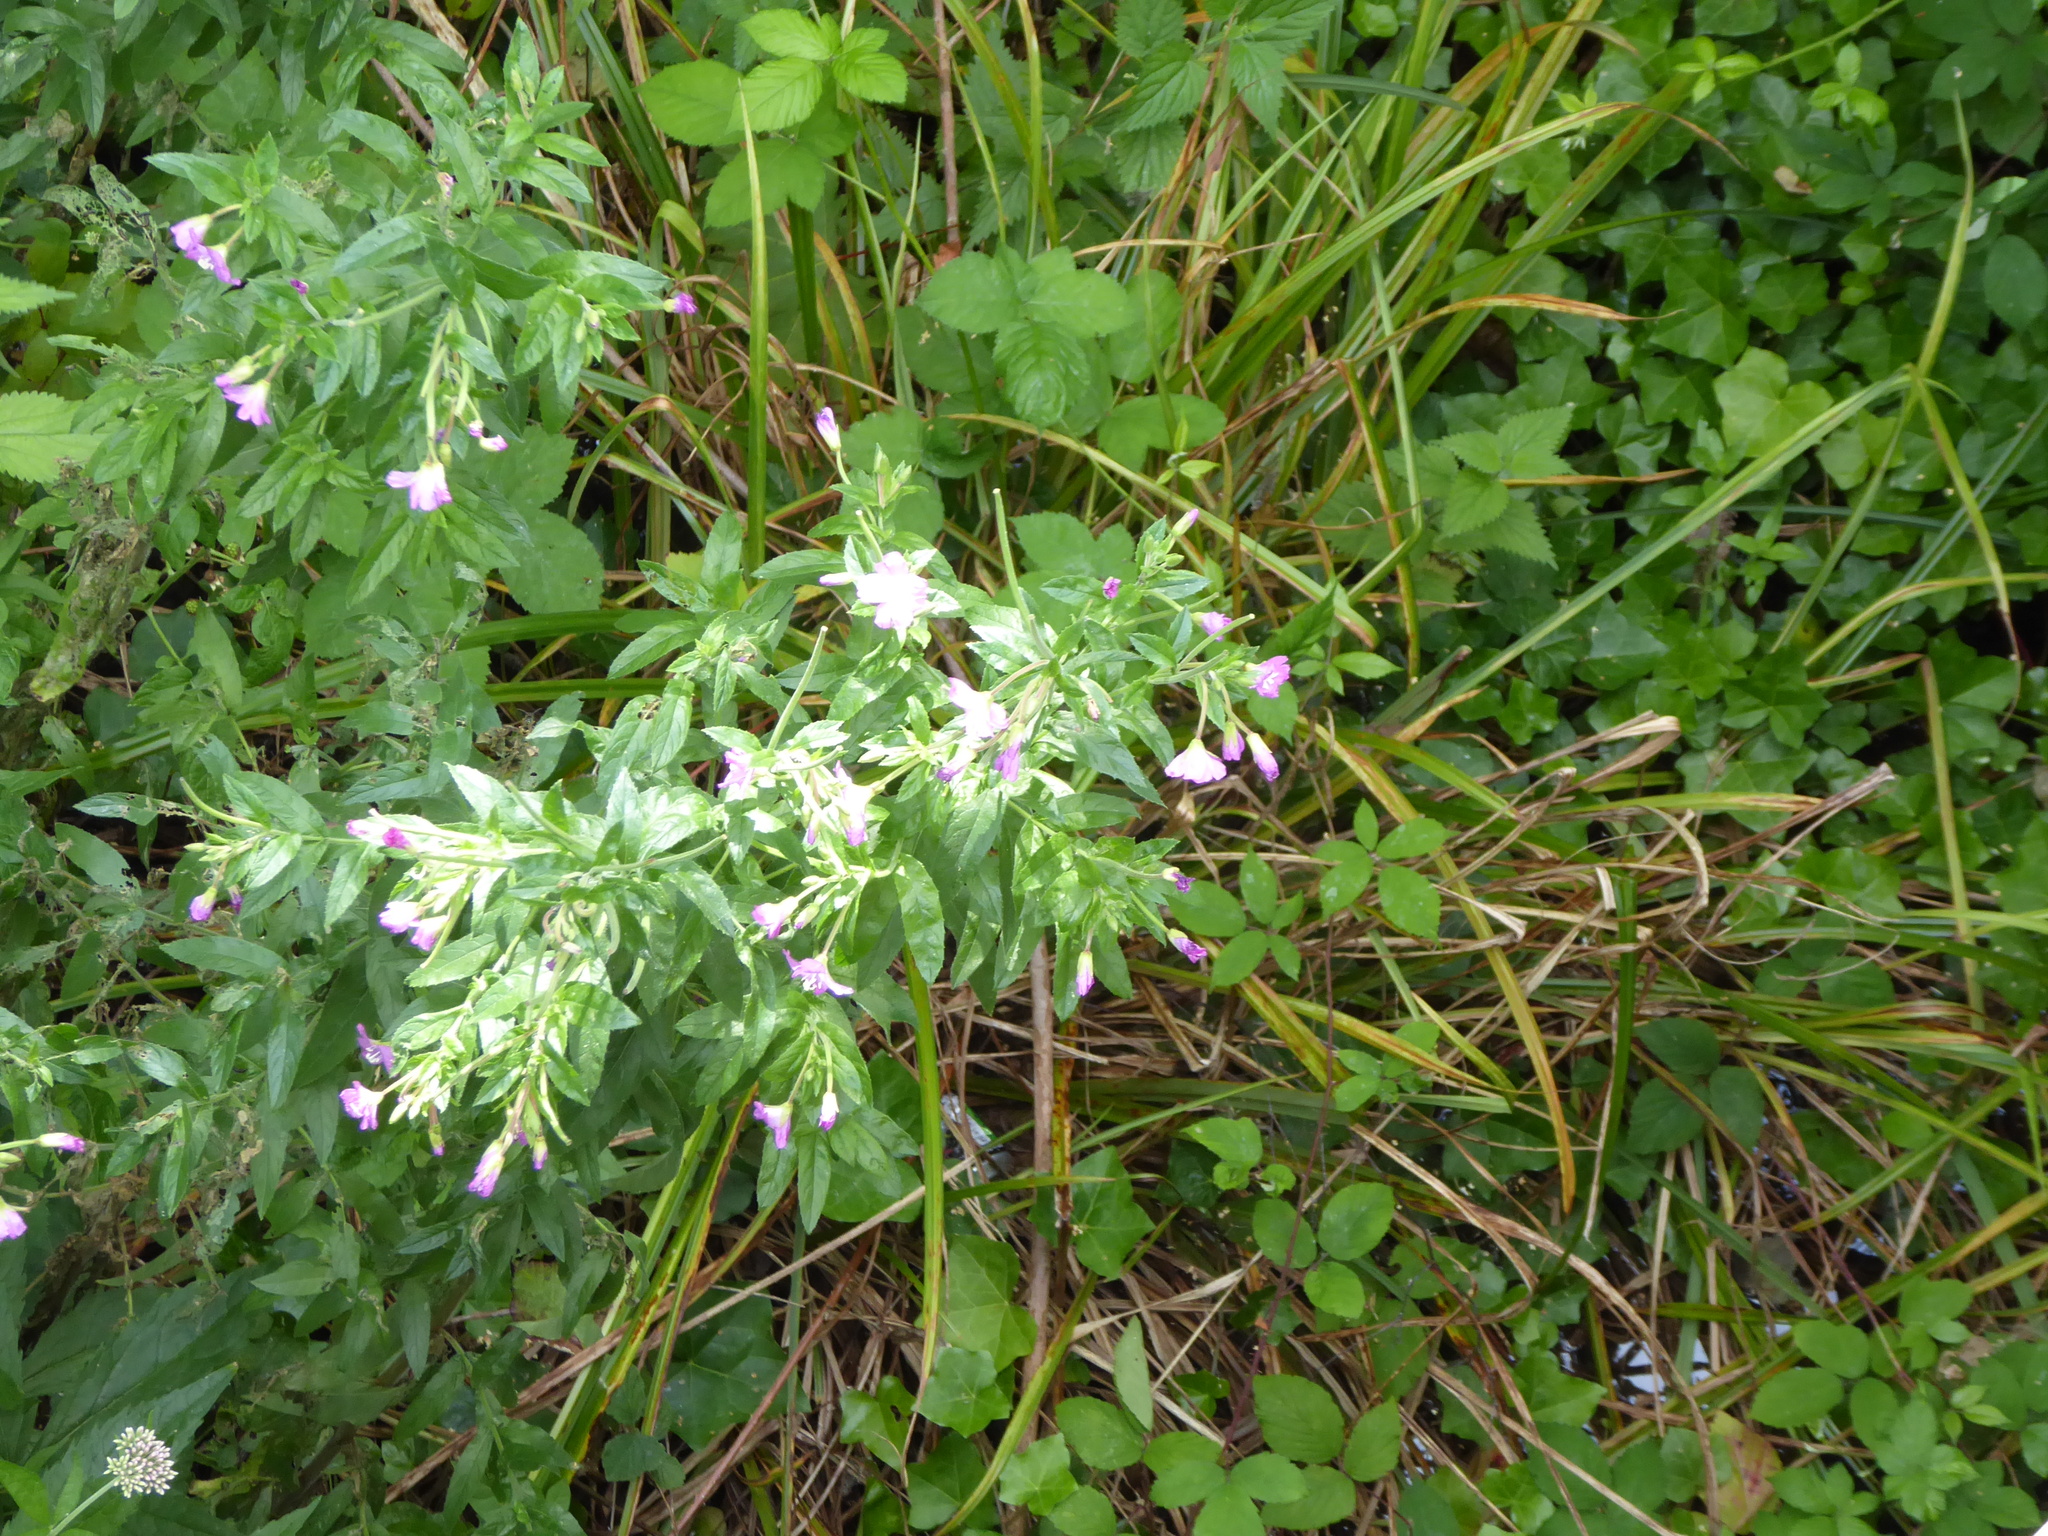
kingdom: Plantae
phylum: Tracheophyta
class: Magnoliopsida
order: Myrtales
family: Onagraceae
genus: Epilobium
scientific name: Epilobium hirsutum
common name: Great willowherb
